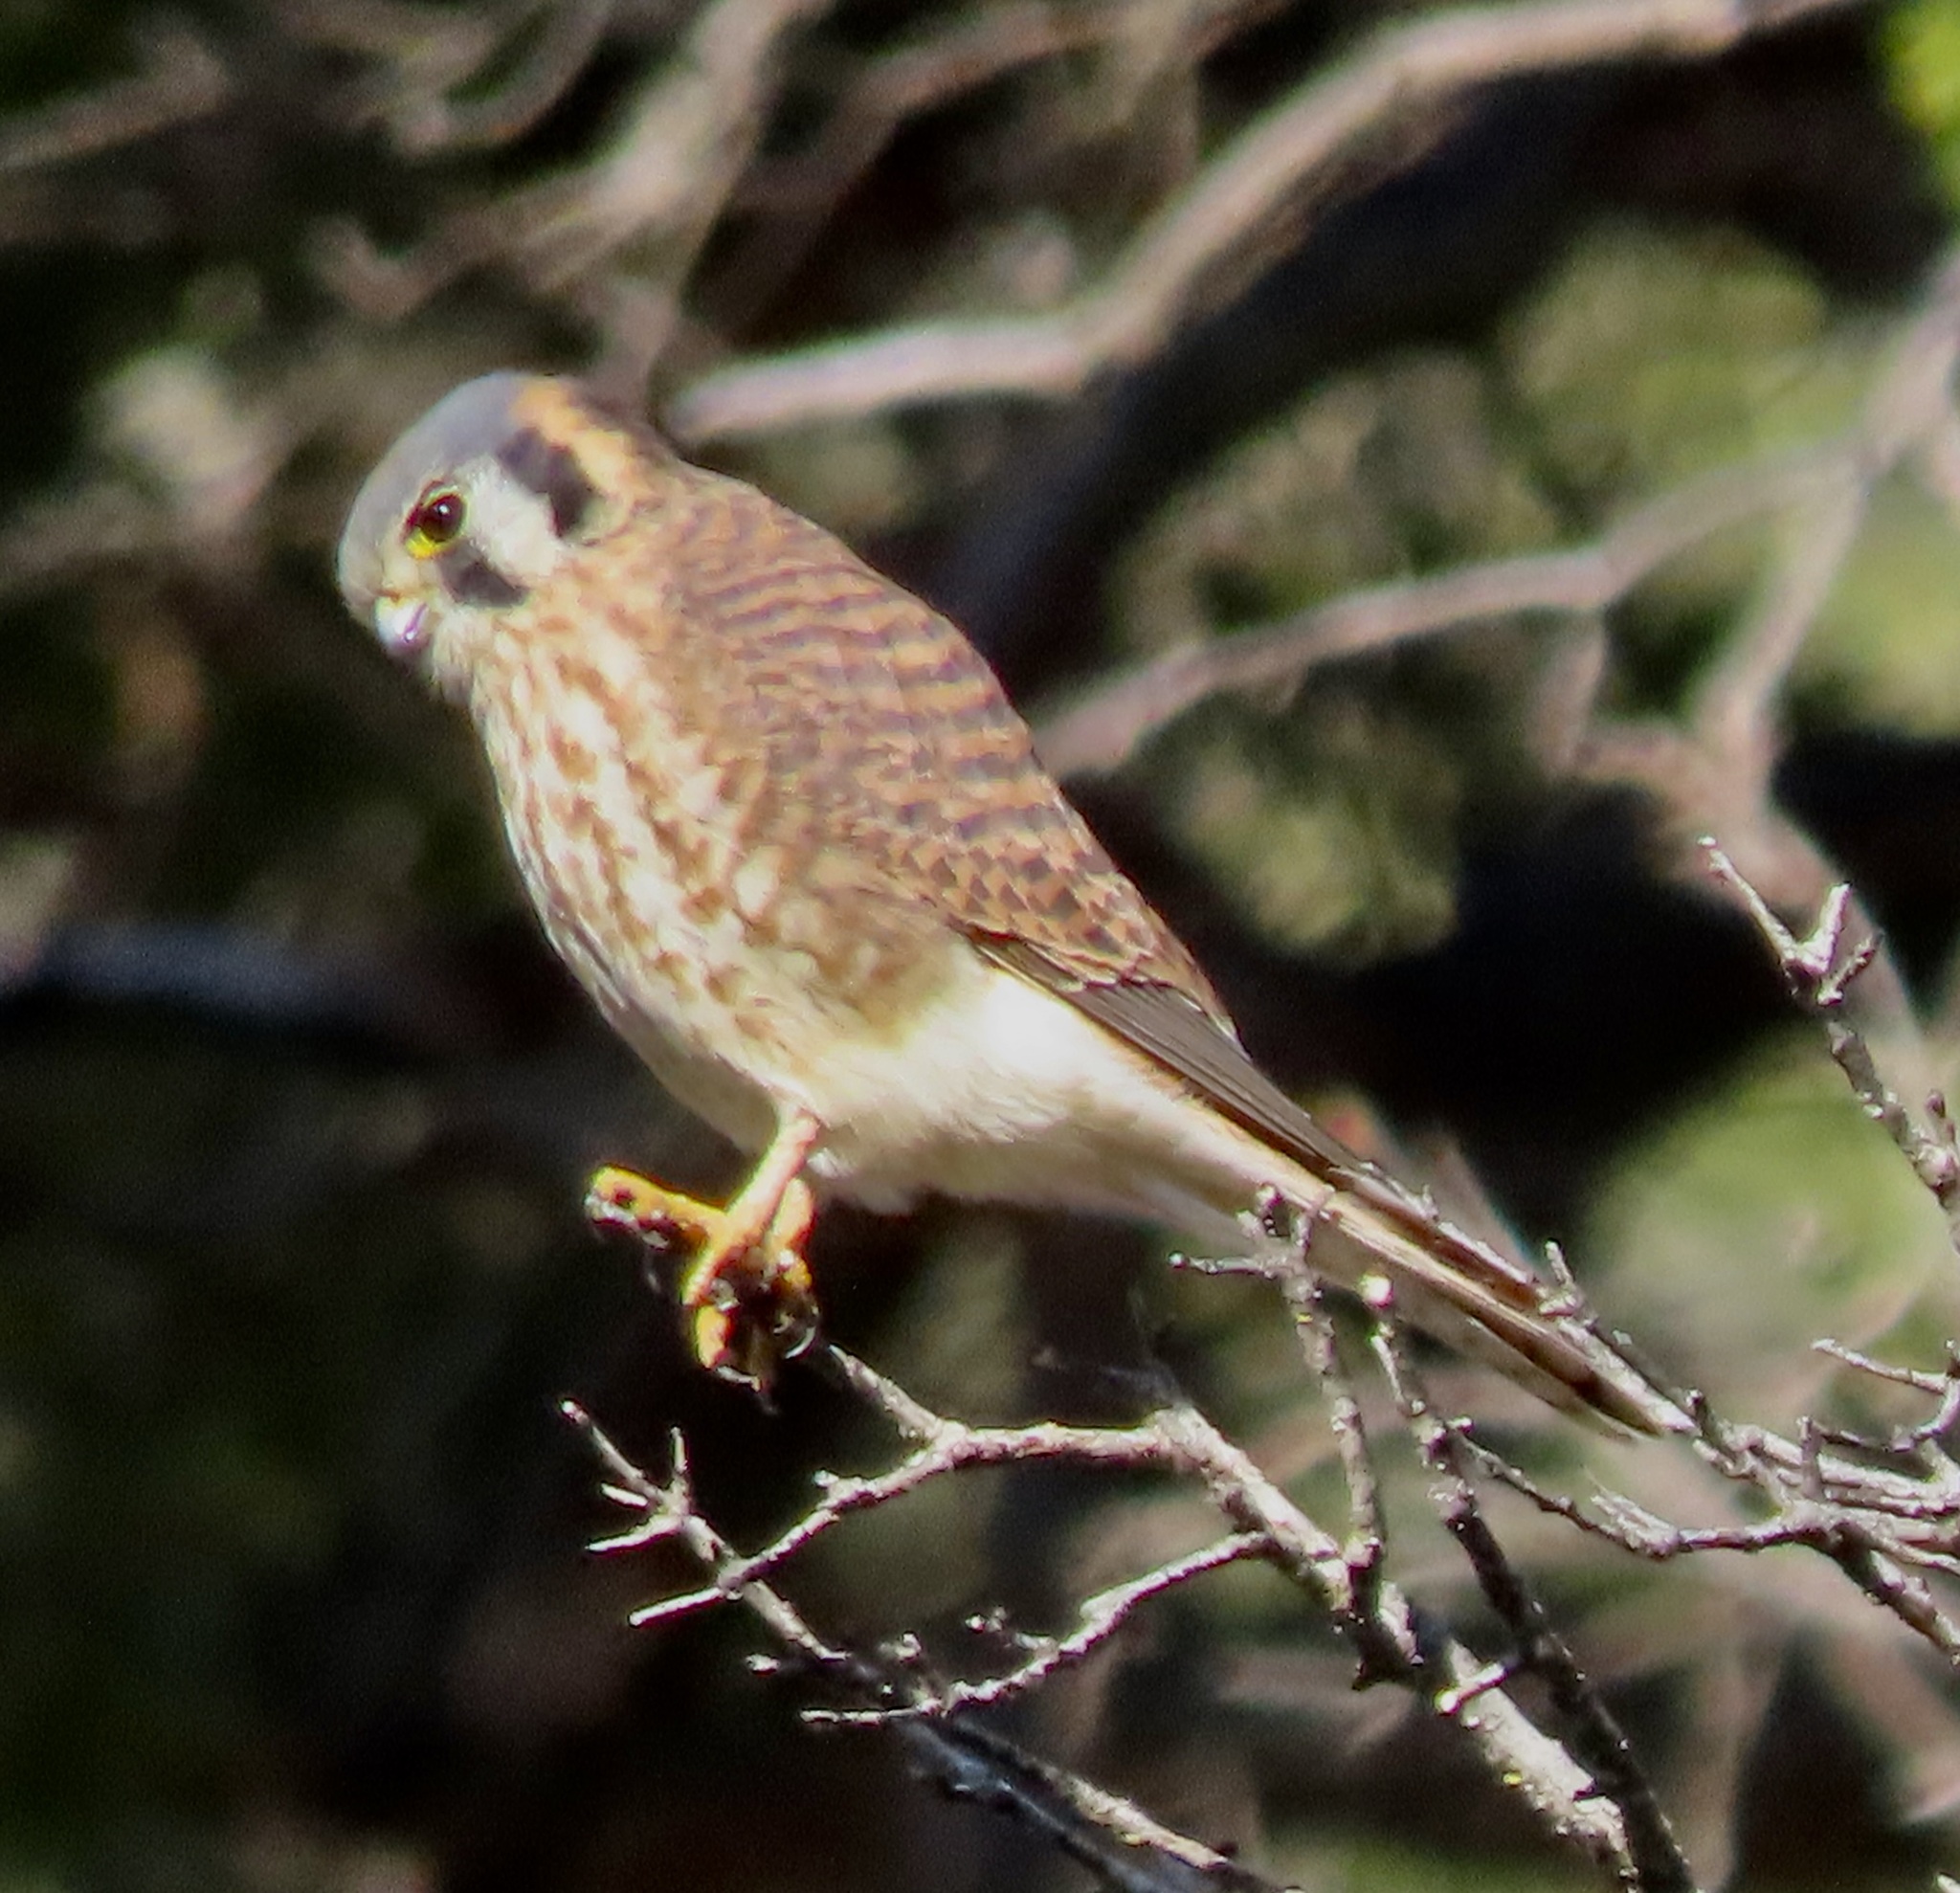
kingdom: Animalia
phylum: Chordata
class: Aves
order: Falconiformes
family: Falconidae
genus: Falco
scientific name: Falco sparverius
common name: American kestrel
